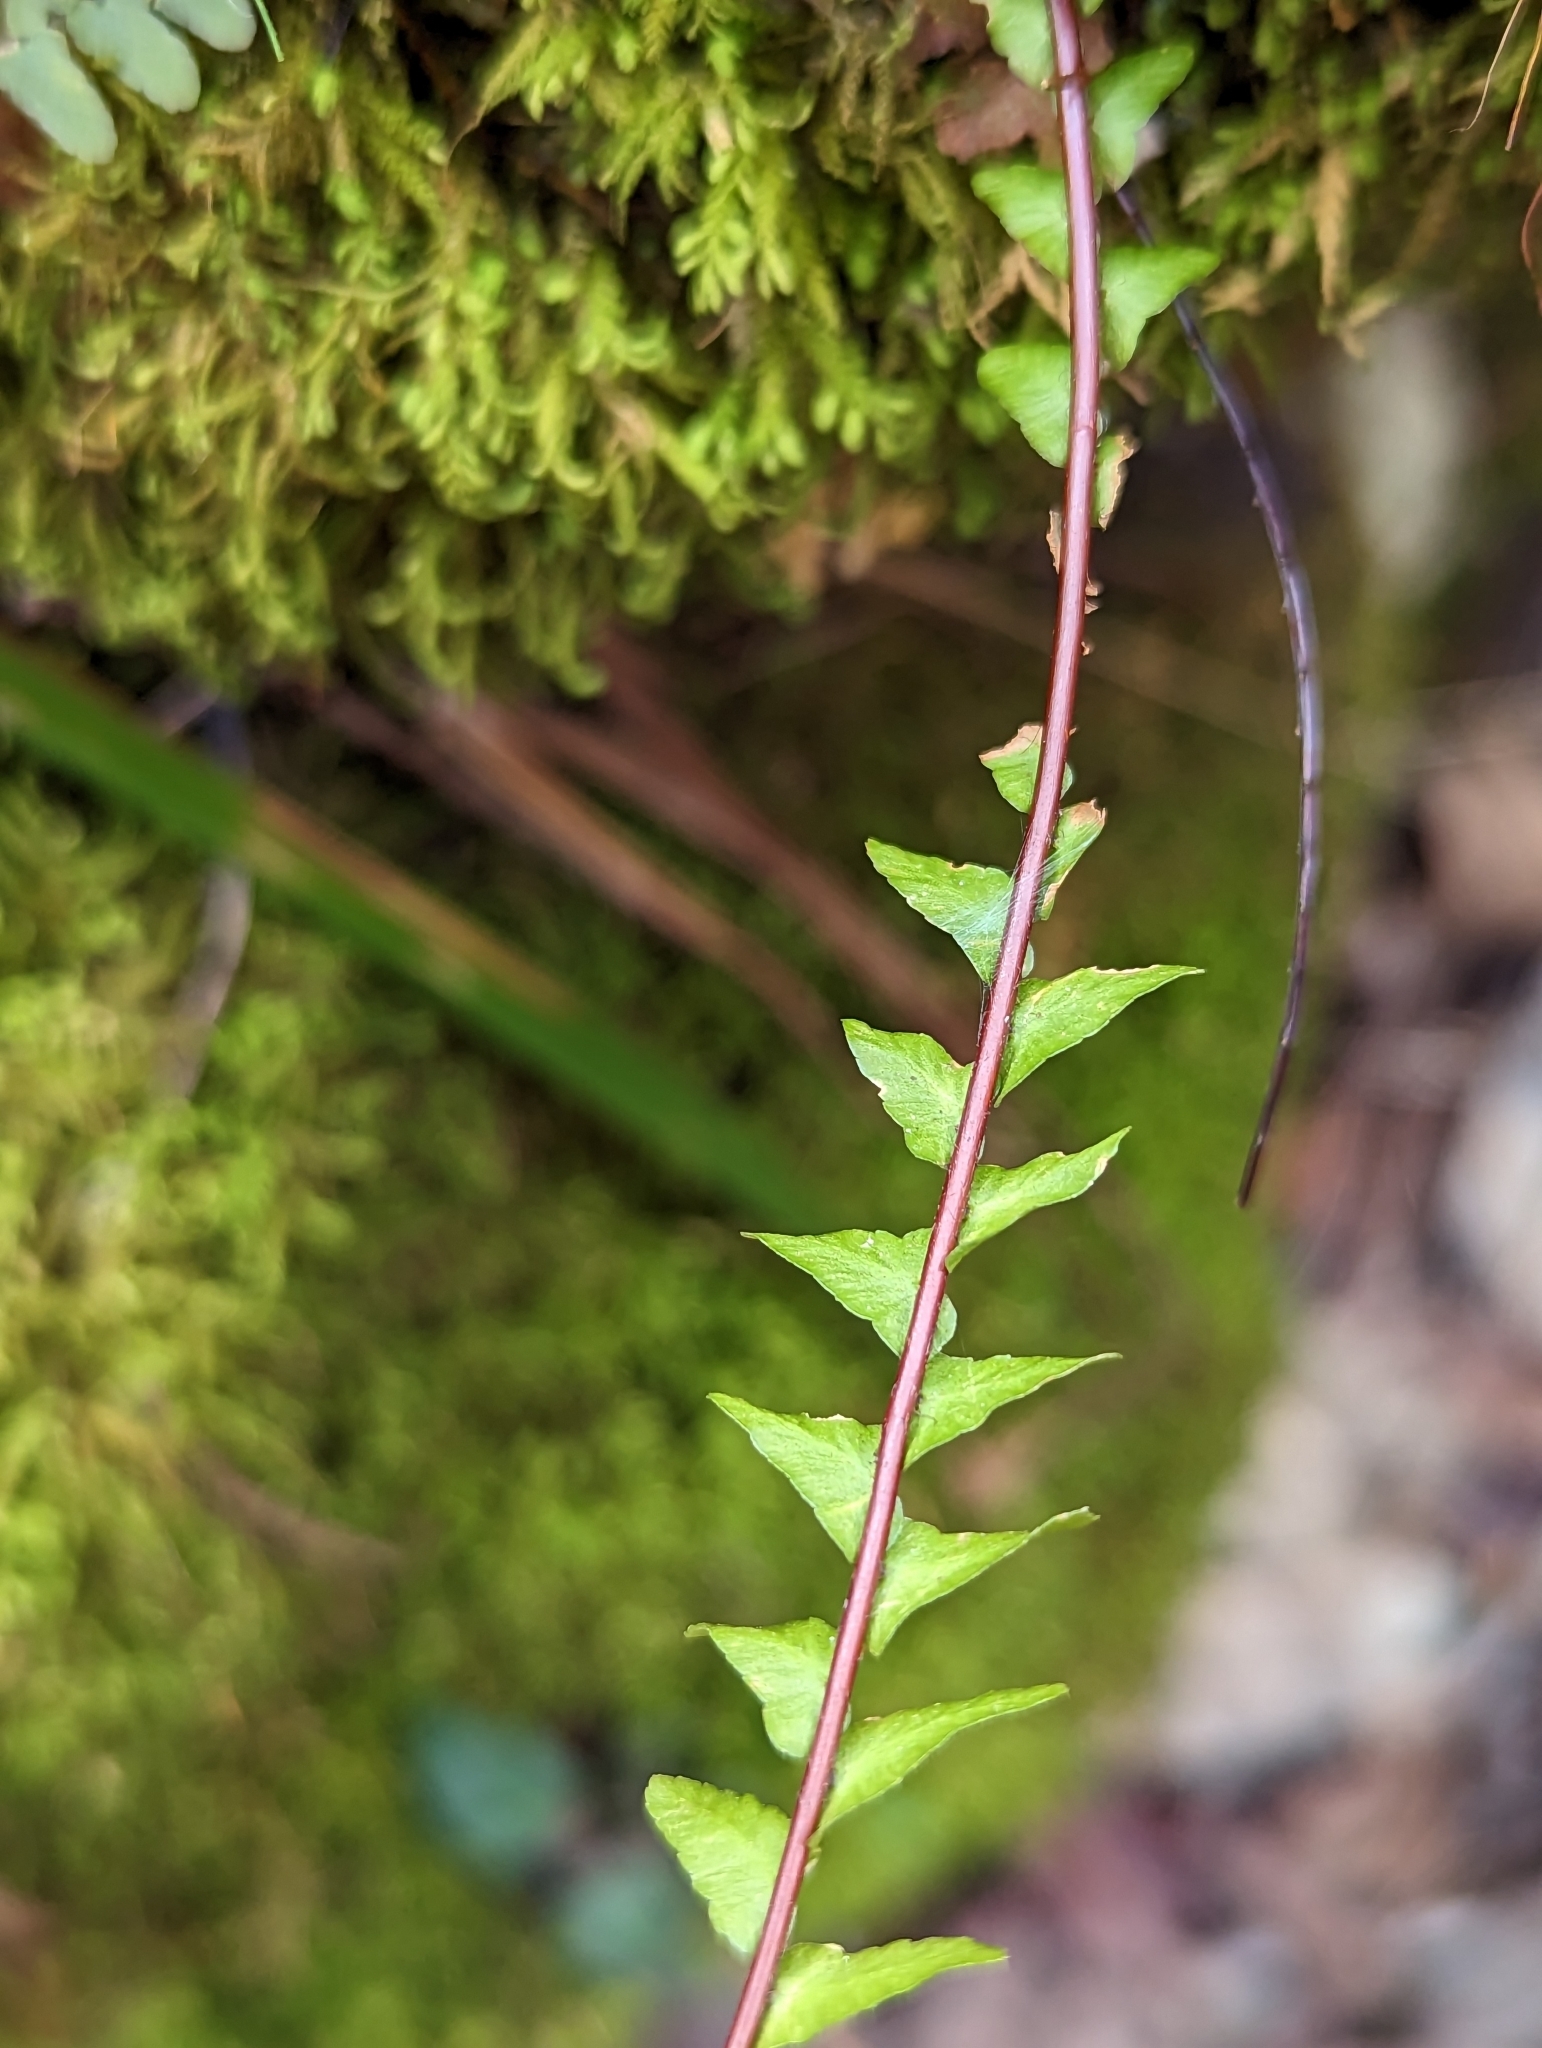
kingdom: Plantae
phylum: Tracheophyta
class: Polypodiopsida
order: Polypodiales
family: Aspleniaceae
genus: Asplenium
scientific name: Asplenium platyneuron
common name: Ebony spleenwort
